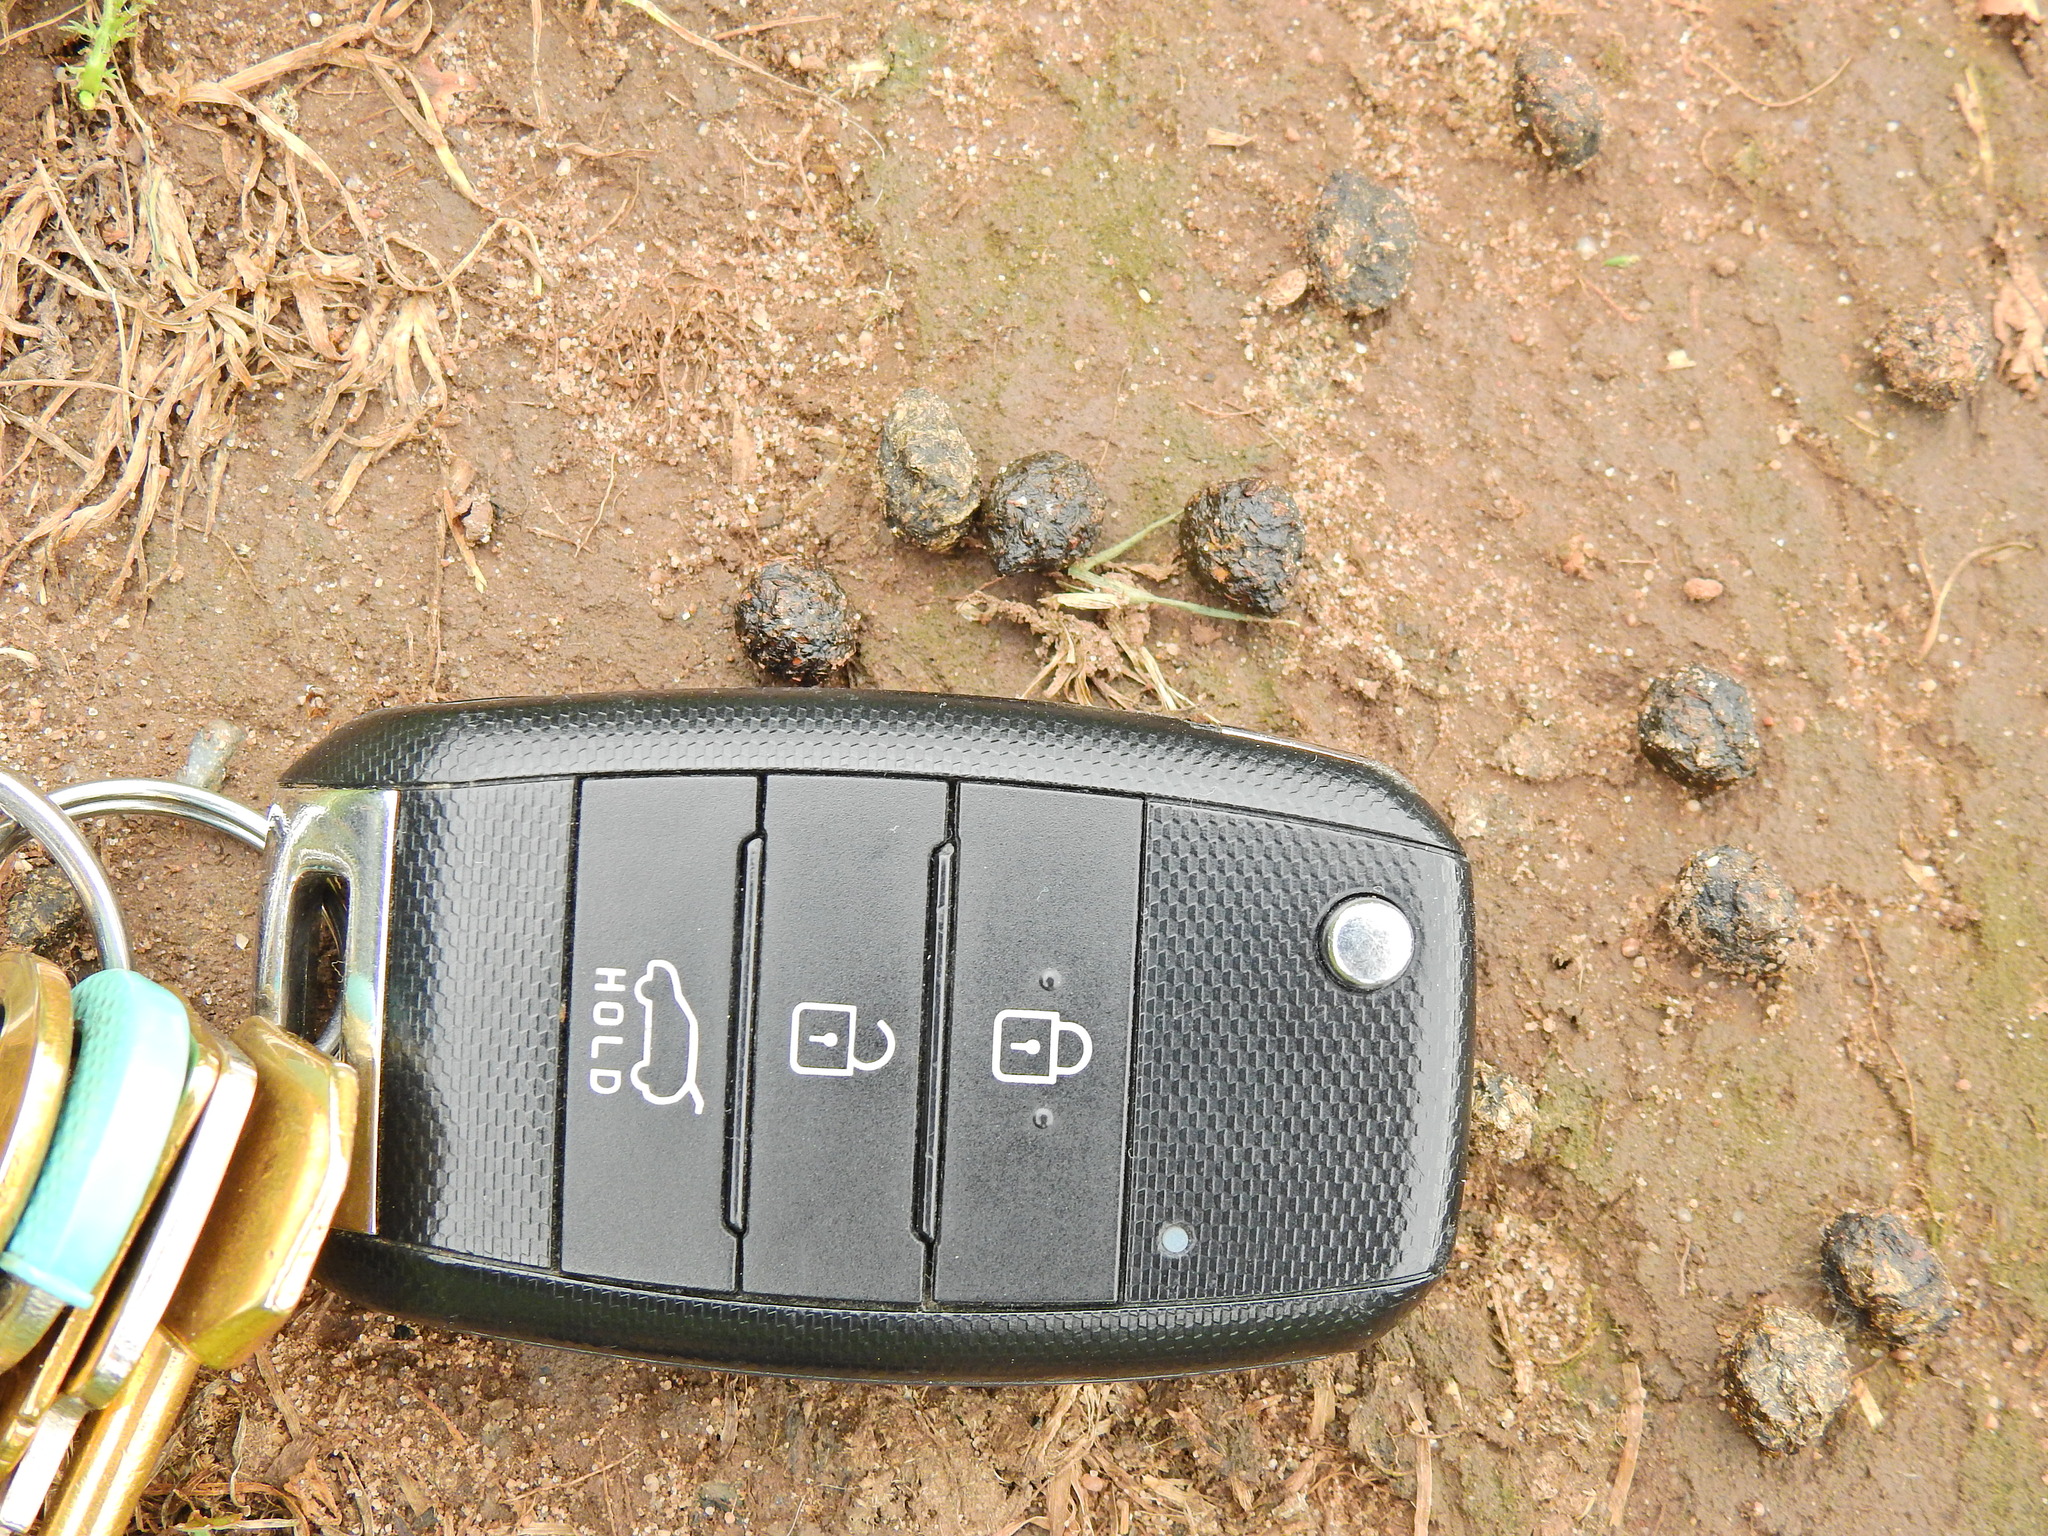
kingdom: Animalia
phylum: Chordata
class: Mammalia
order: Lagomorpha
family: Leporidae
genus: Oryctolagus
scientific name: Oryctolagus cuniculus
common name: European rabbit
